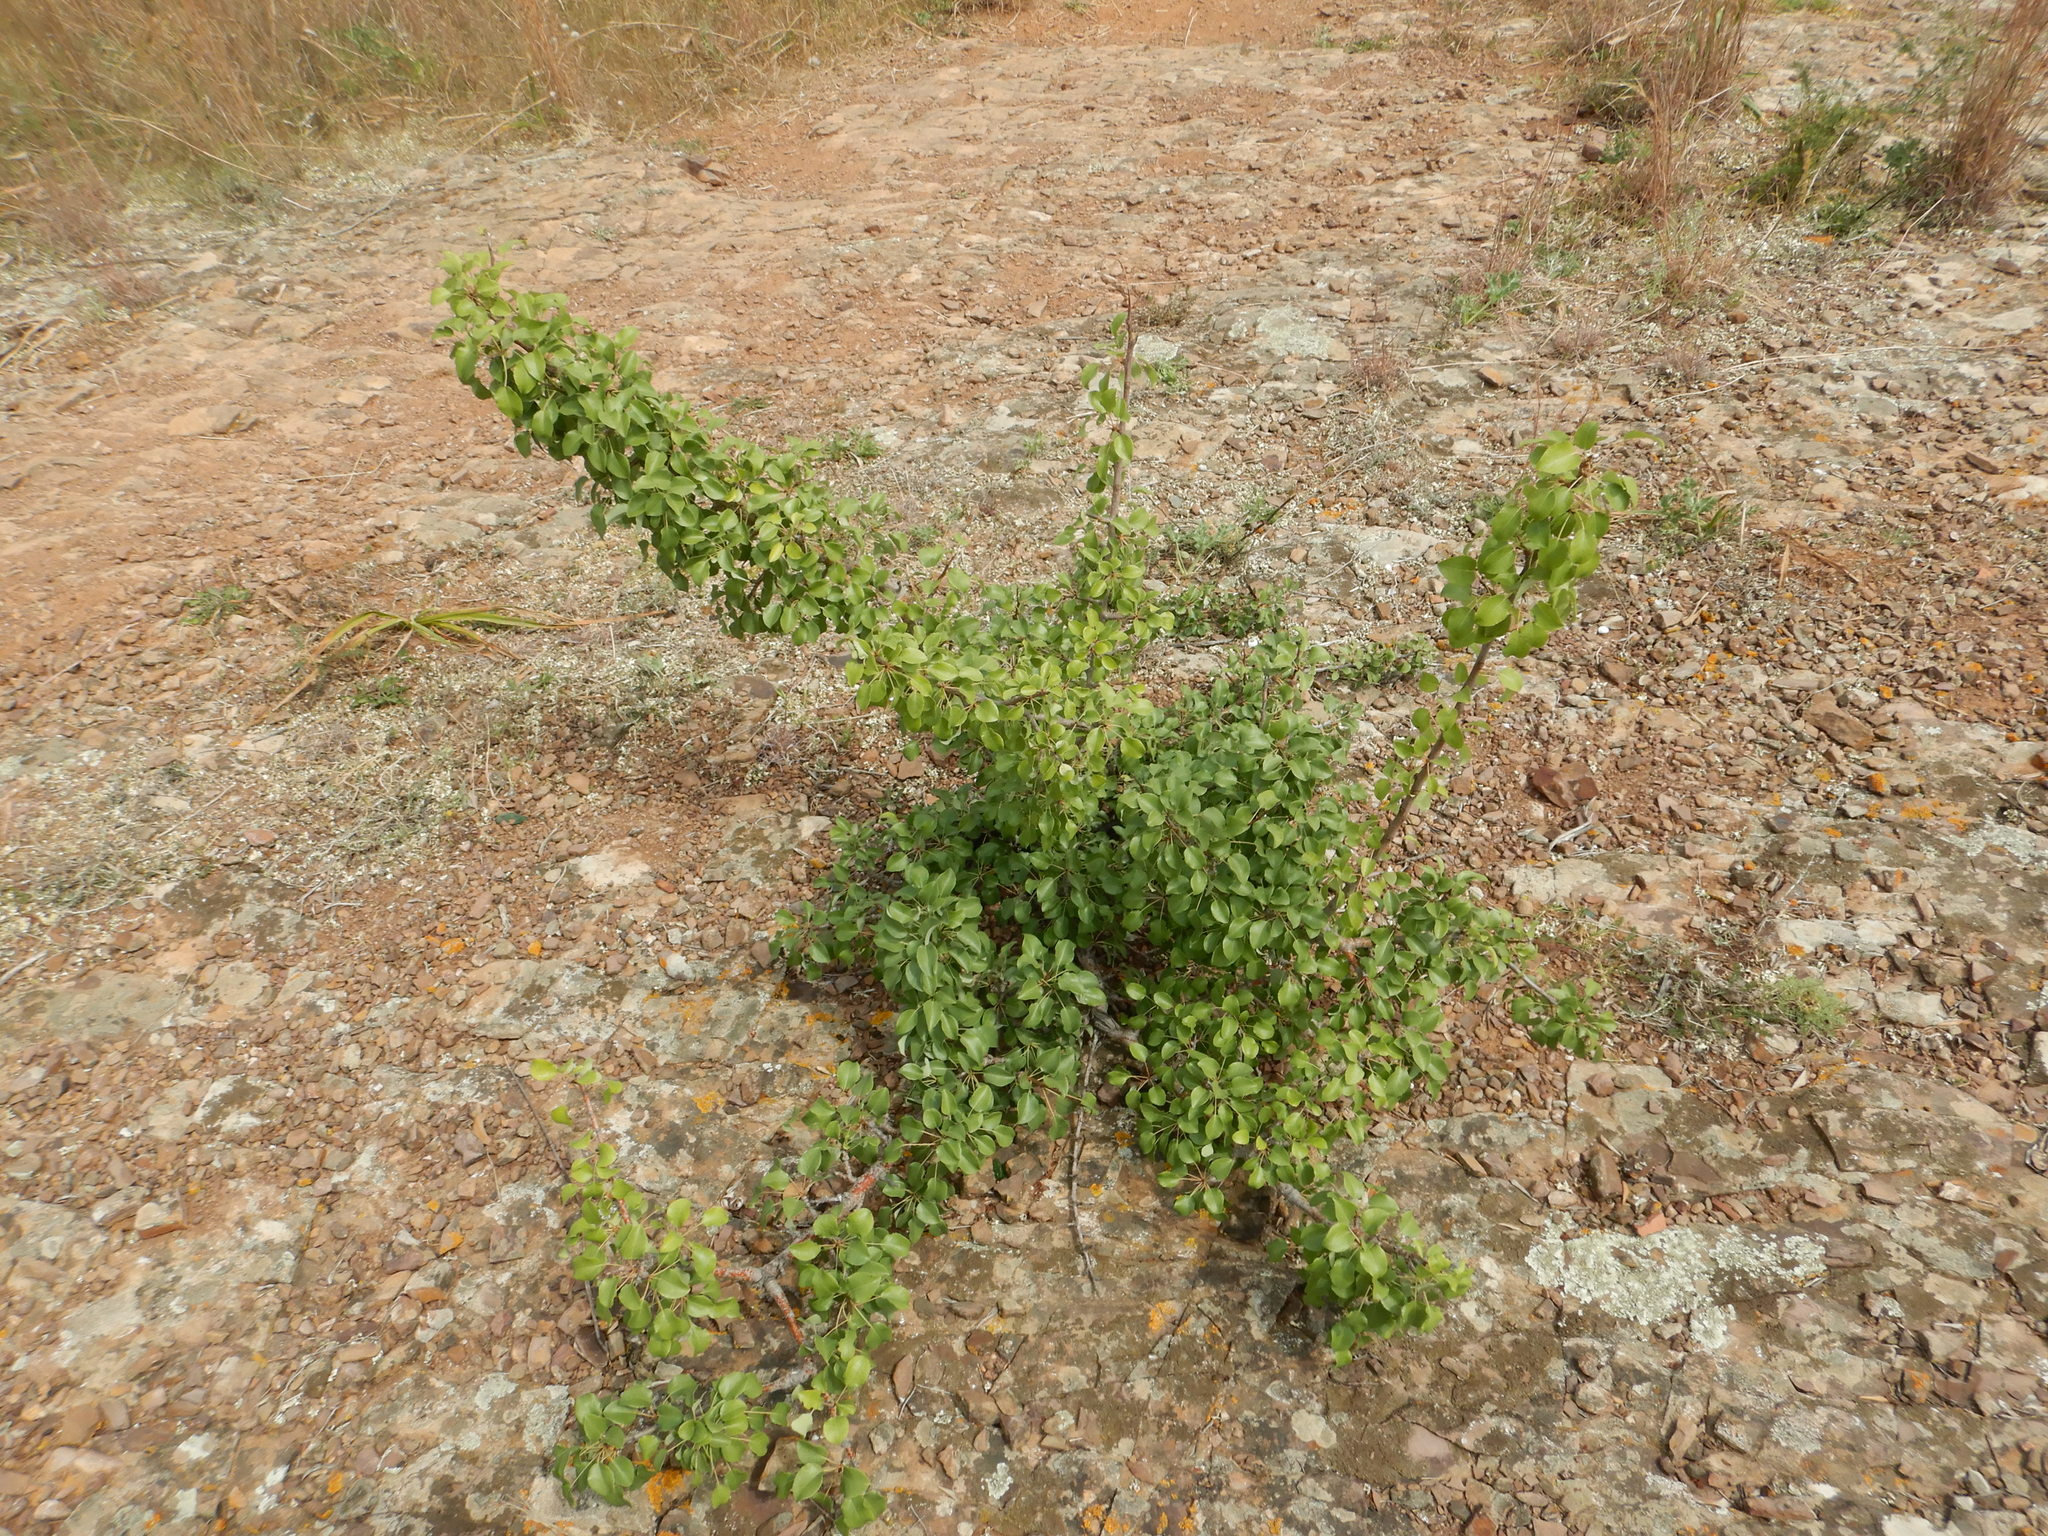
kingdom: Plantae
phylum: Tracheophyta
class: Magnoliopsida
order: Rosales
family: Rosaceae
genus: Pyrus
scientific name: Pyrus bourgaeana
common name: Iberian pear
